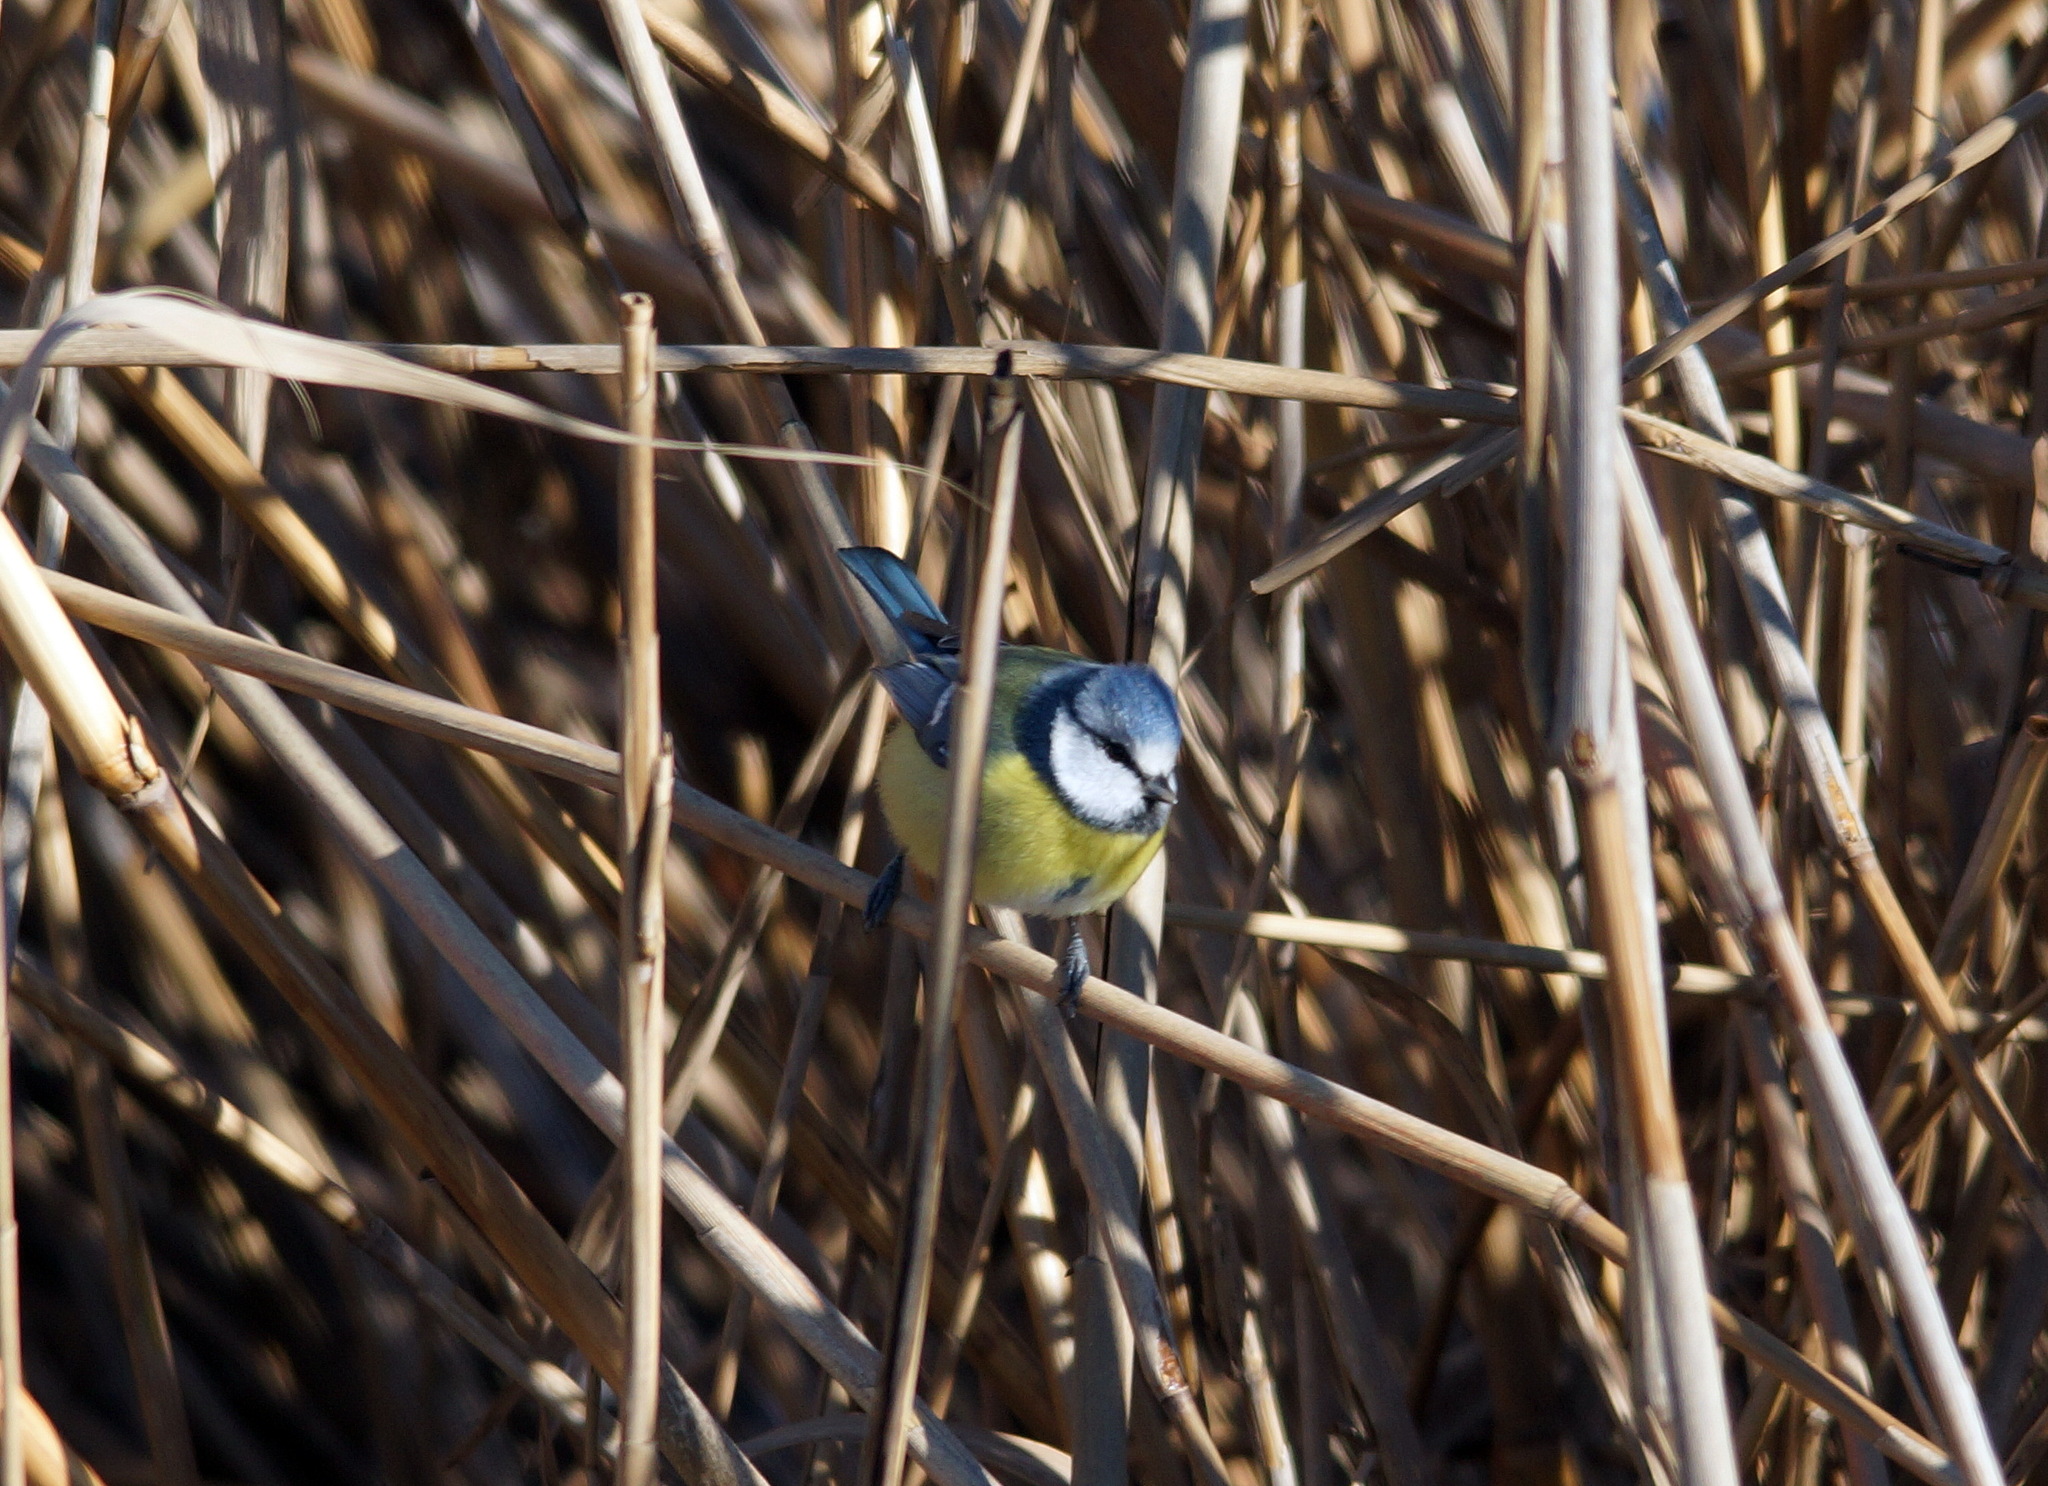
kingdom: Animalia
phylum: Chordata
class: Aves
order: Passeriformes
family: Paridae
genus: Cyanistes
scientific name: Cyanistes caeruleus
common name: Eurasian blue tit
